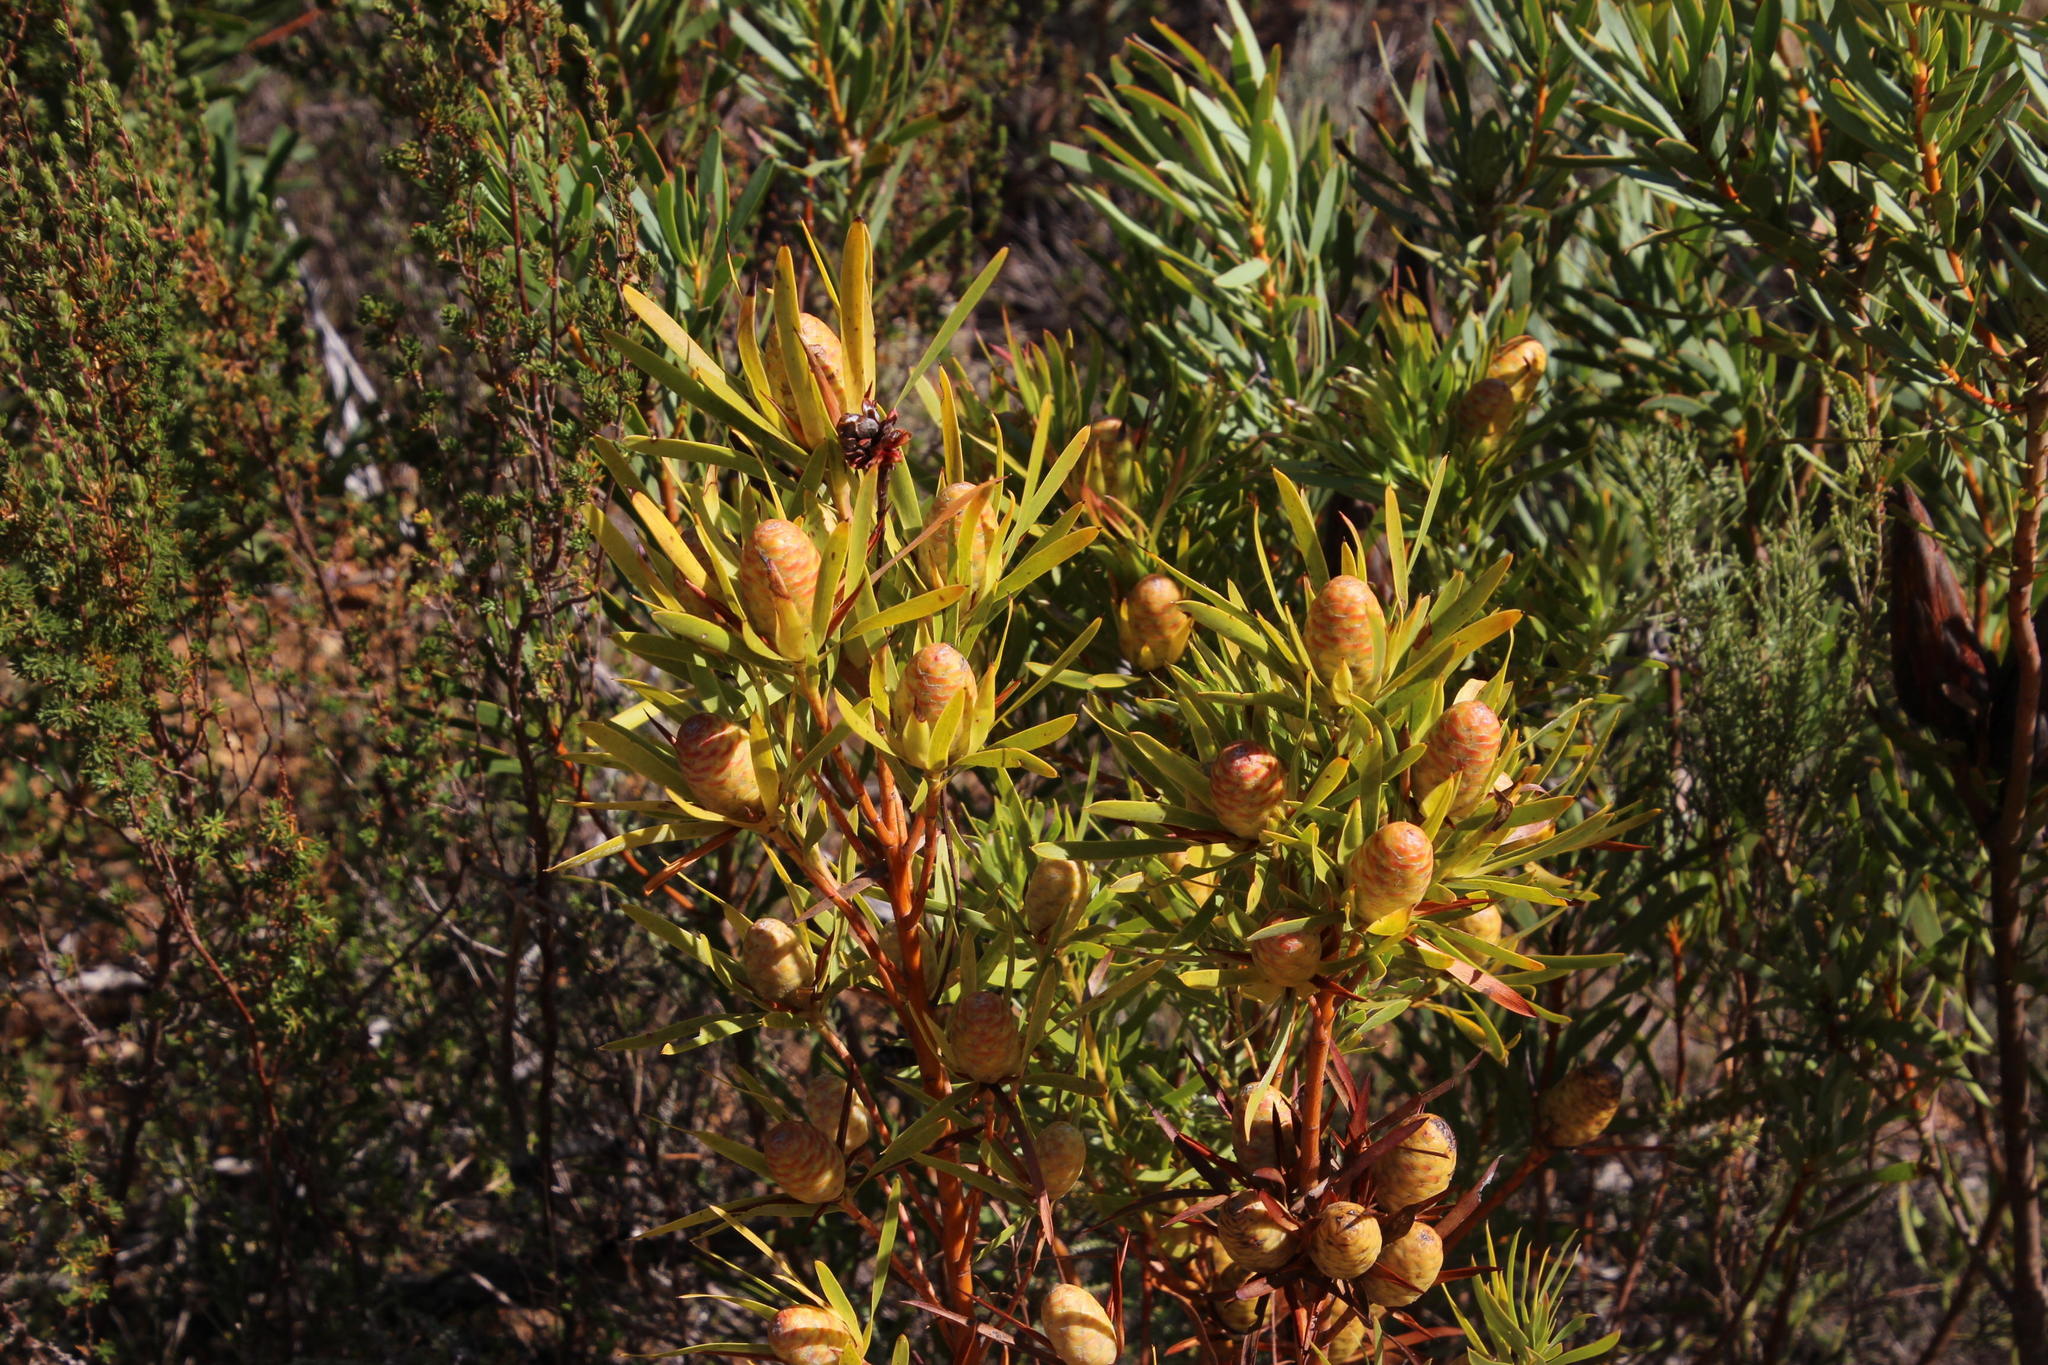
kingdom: Plantae
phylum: Tracheophyta
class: Magnoliopsida
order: Proteales
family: Proteaceae
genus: Leucadendron
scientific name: Leucadendron xanthoconus
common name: Sickle-leaf conebush
